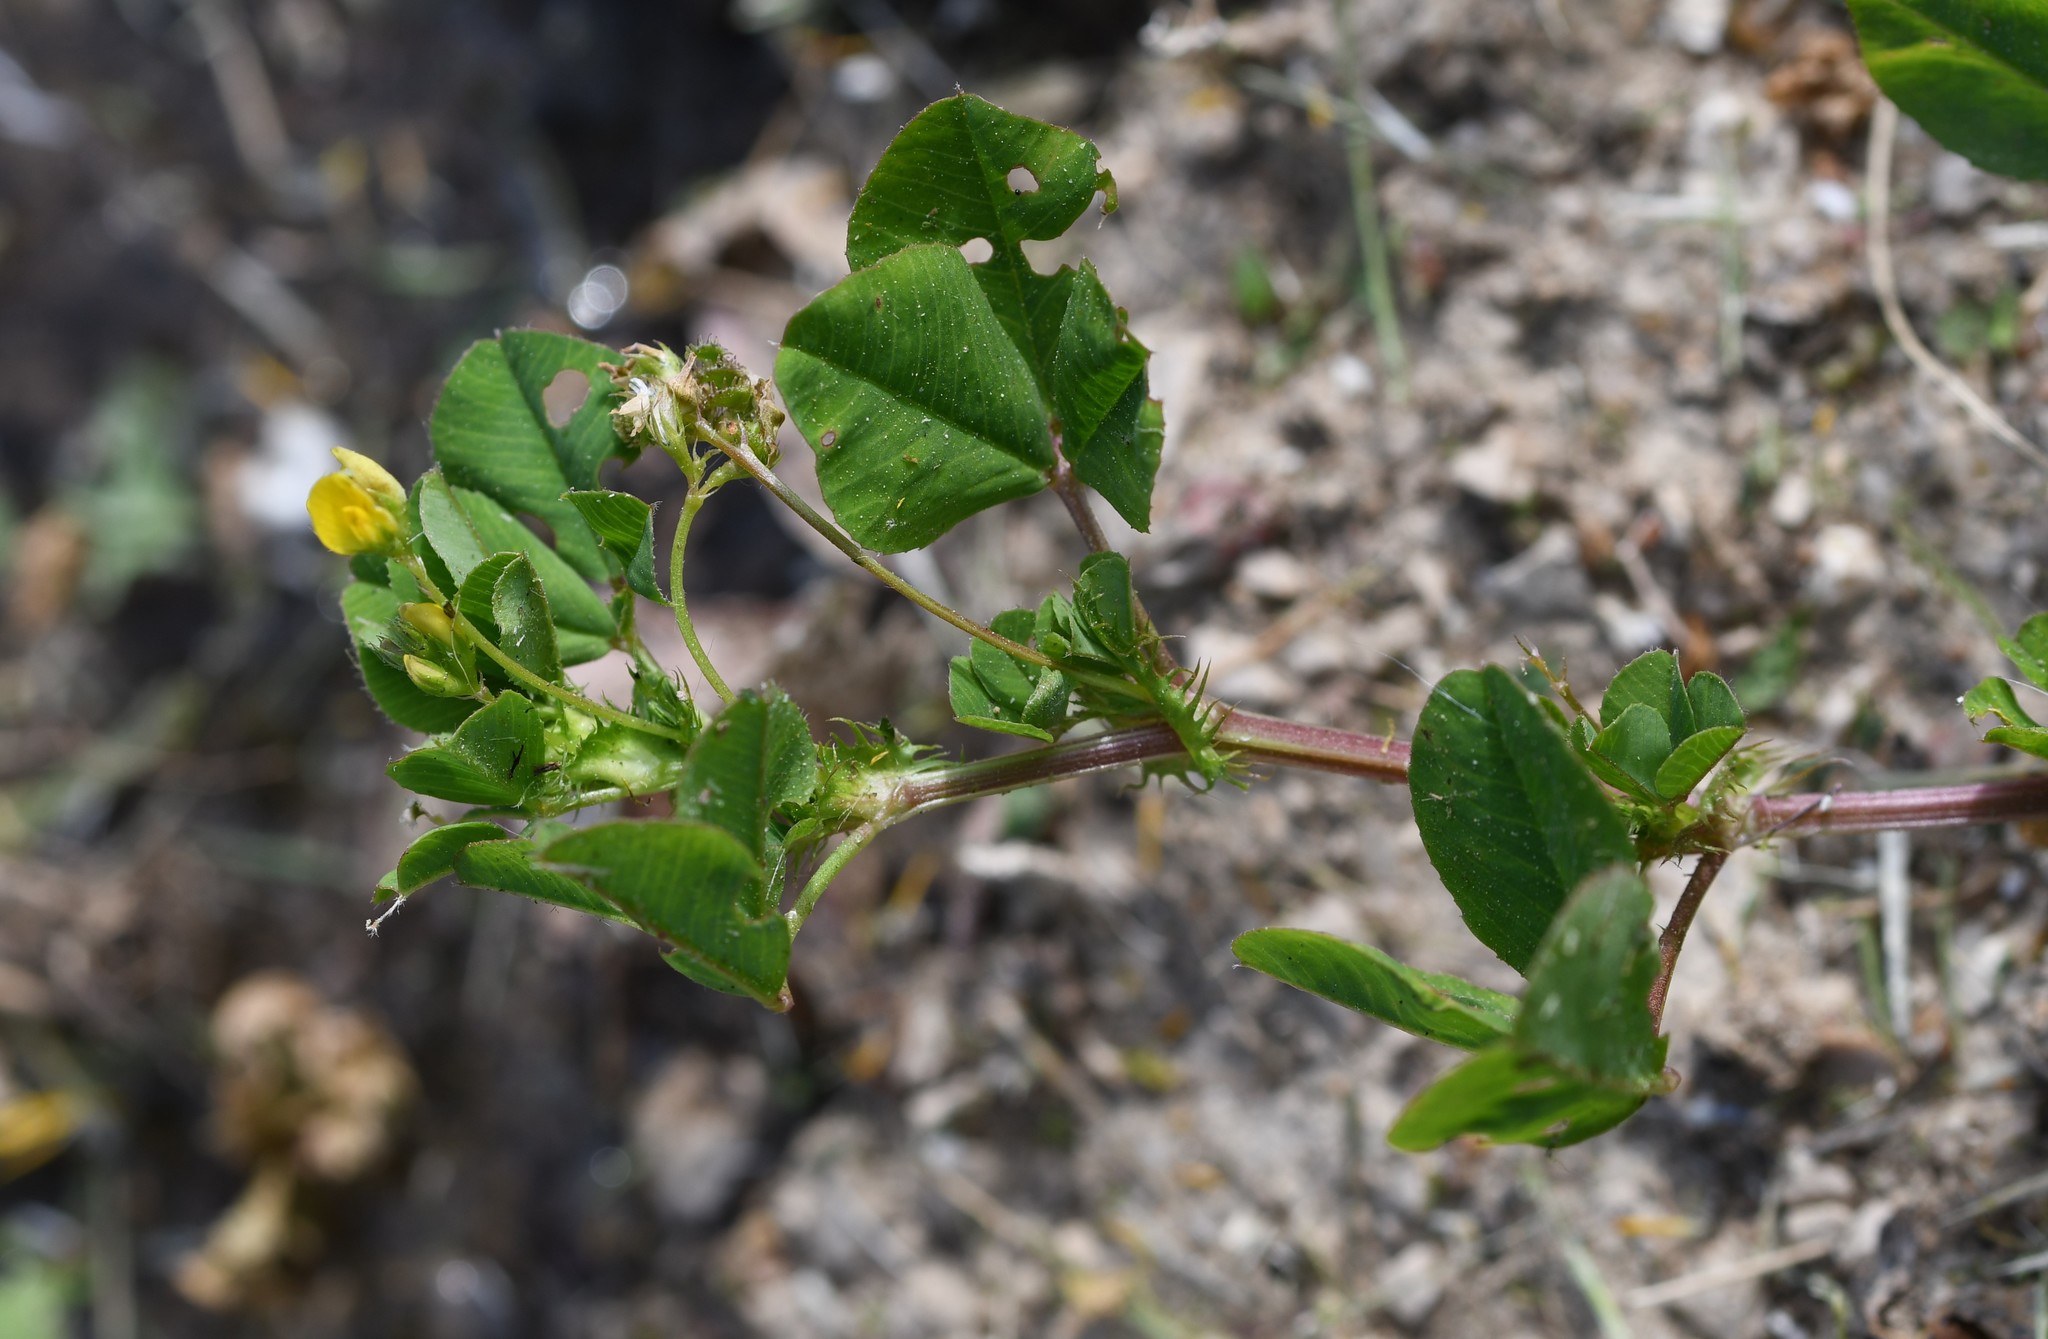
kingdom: Plantae
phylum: Tracheophyta
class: Magnoliopsida
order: Fabales
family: Fabaceae
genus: Medicago
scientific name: Medicago polymorpha
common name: Burclover
